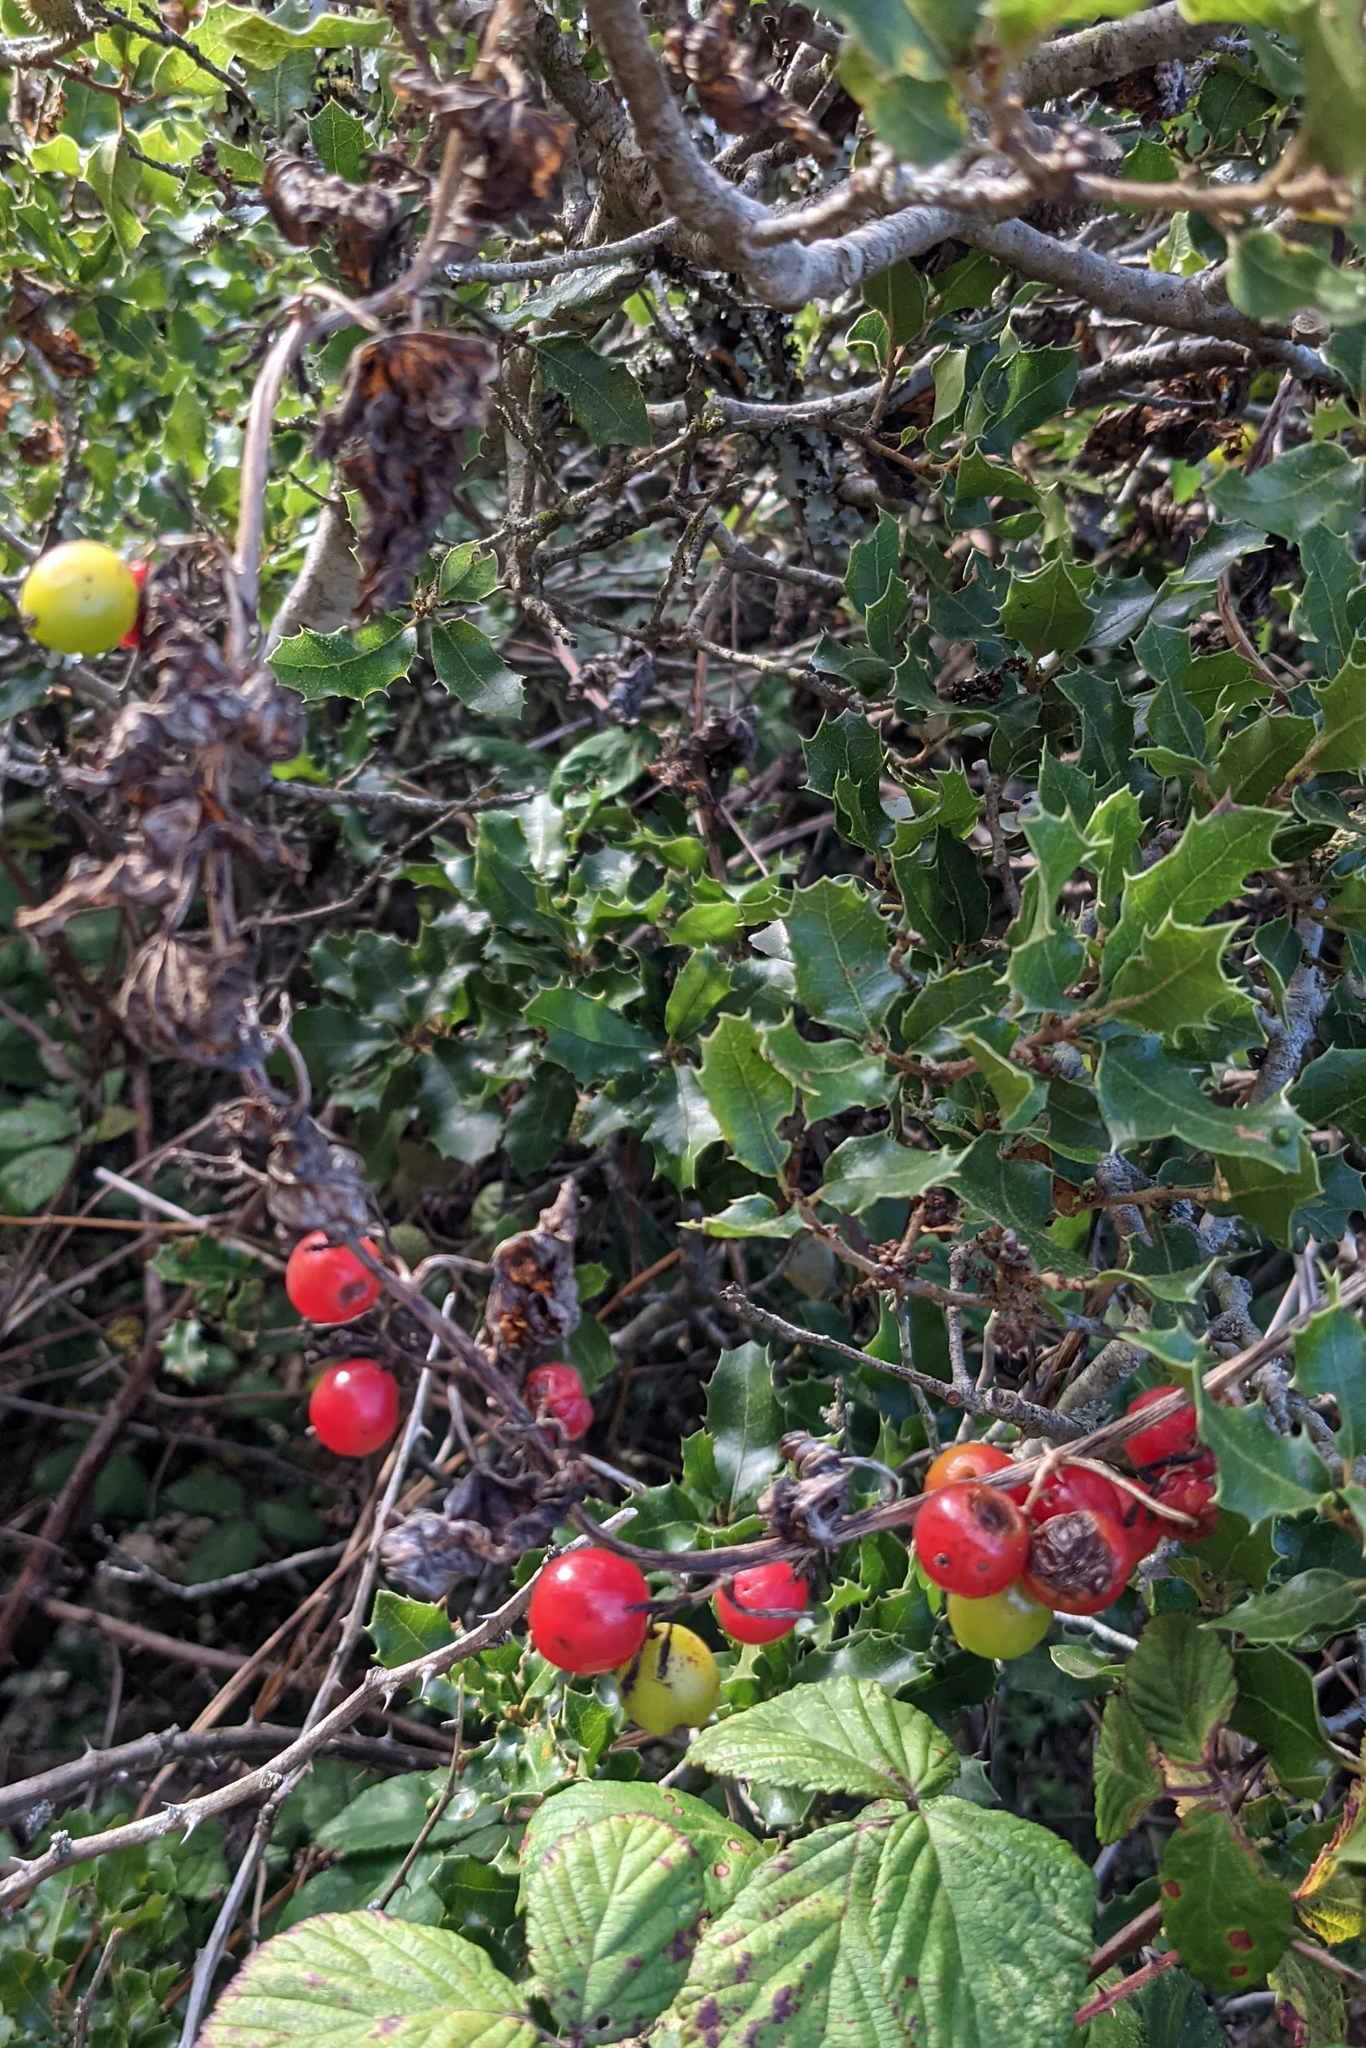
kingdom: Plantae
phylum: Tracheophyta
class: Liliopsida
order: Dioscoreales
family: Dioscoreaceae
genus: Dioscorea
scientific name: Dioscorea communis
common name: Black-bindweed
